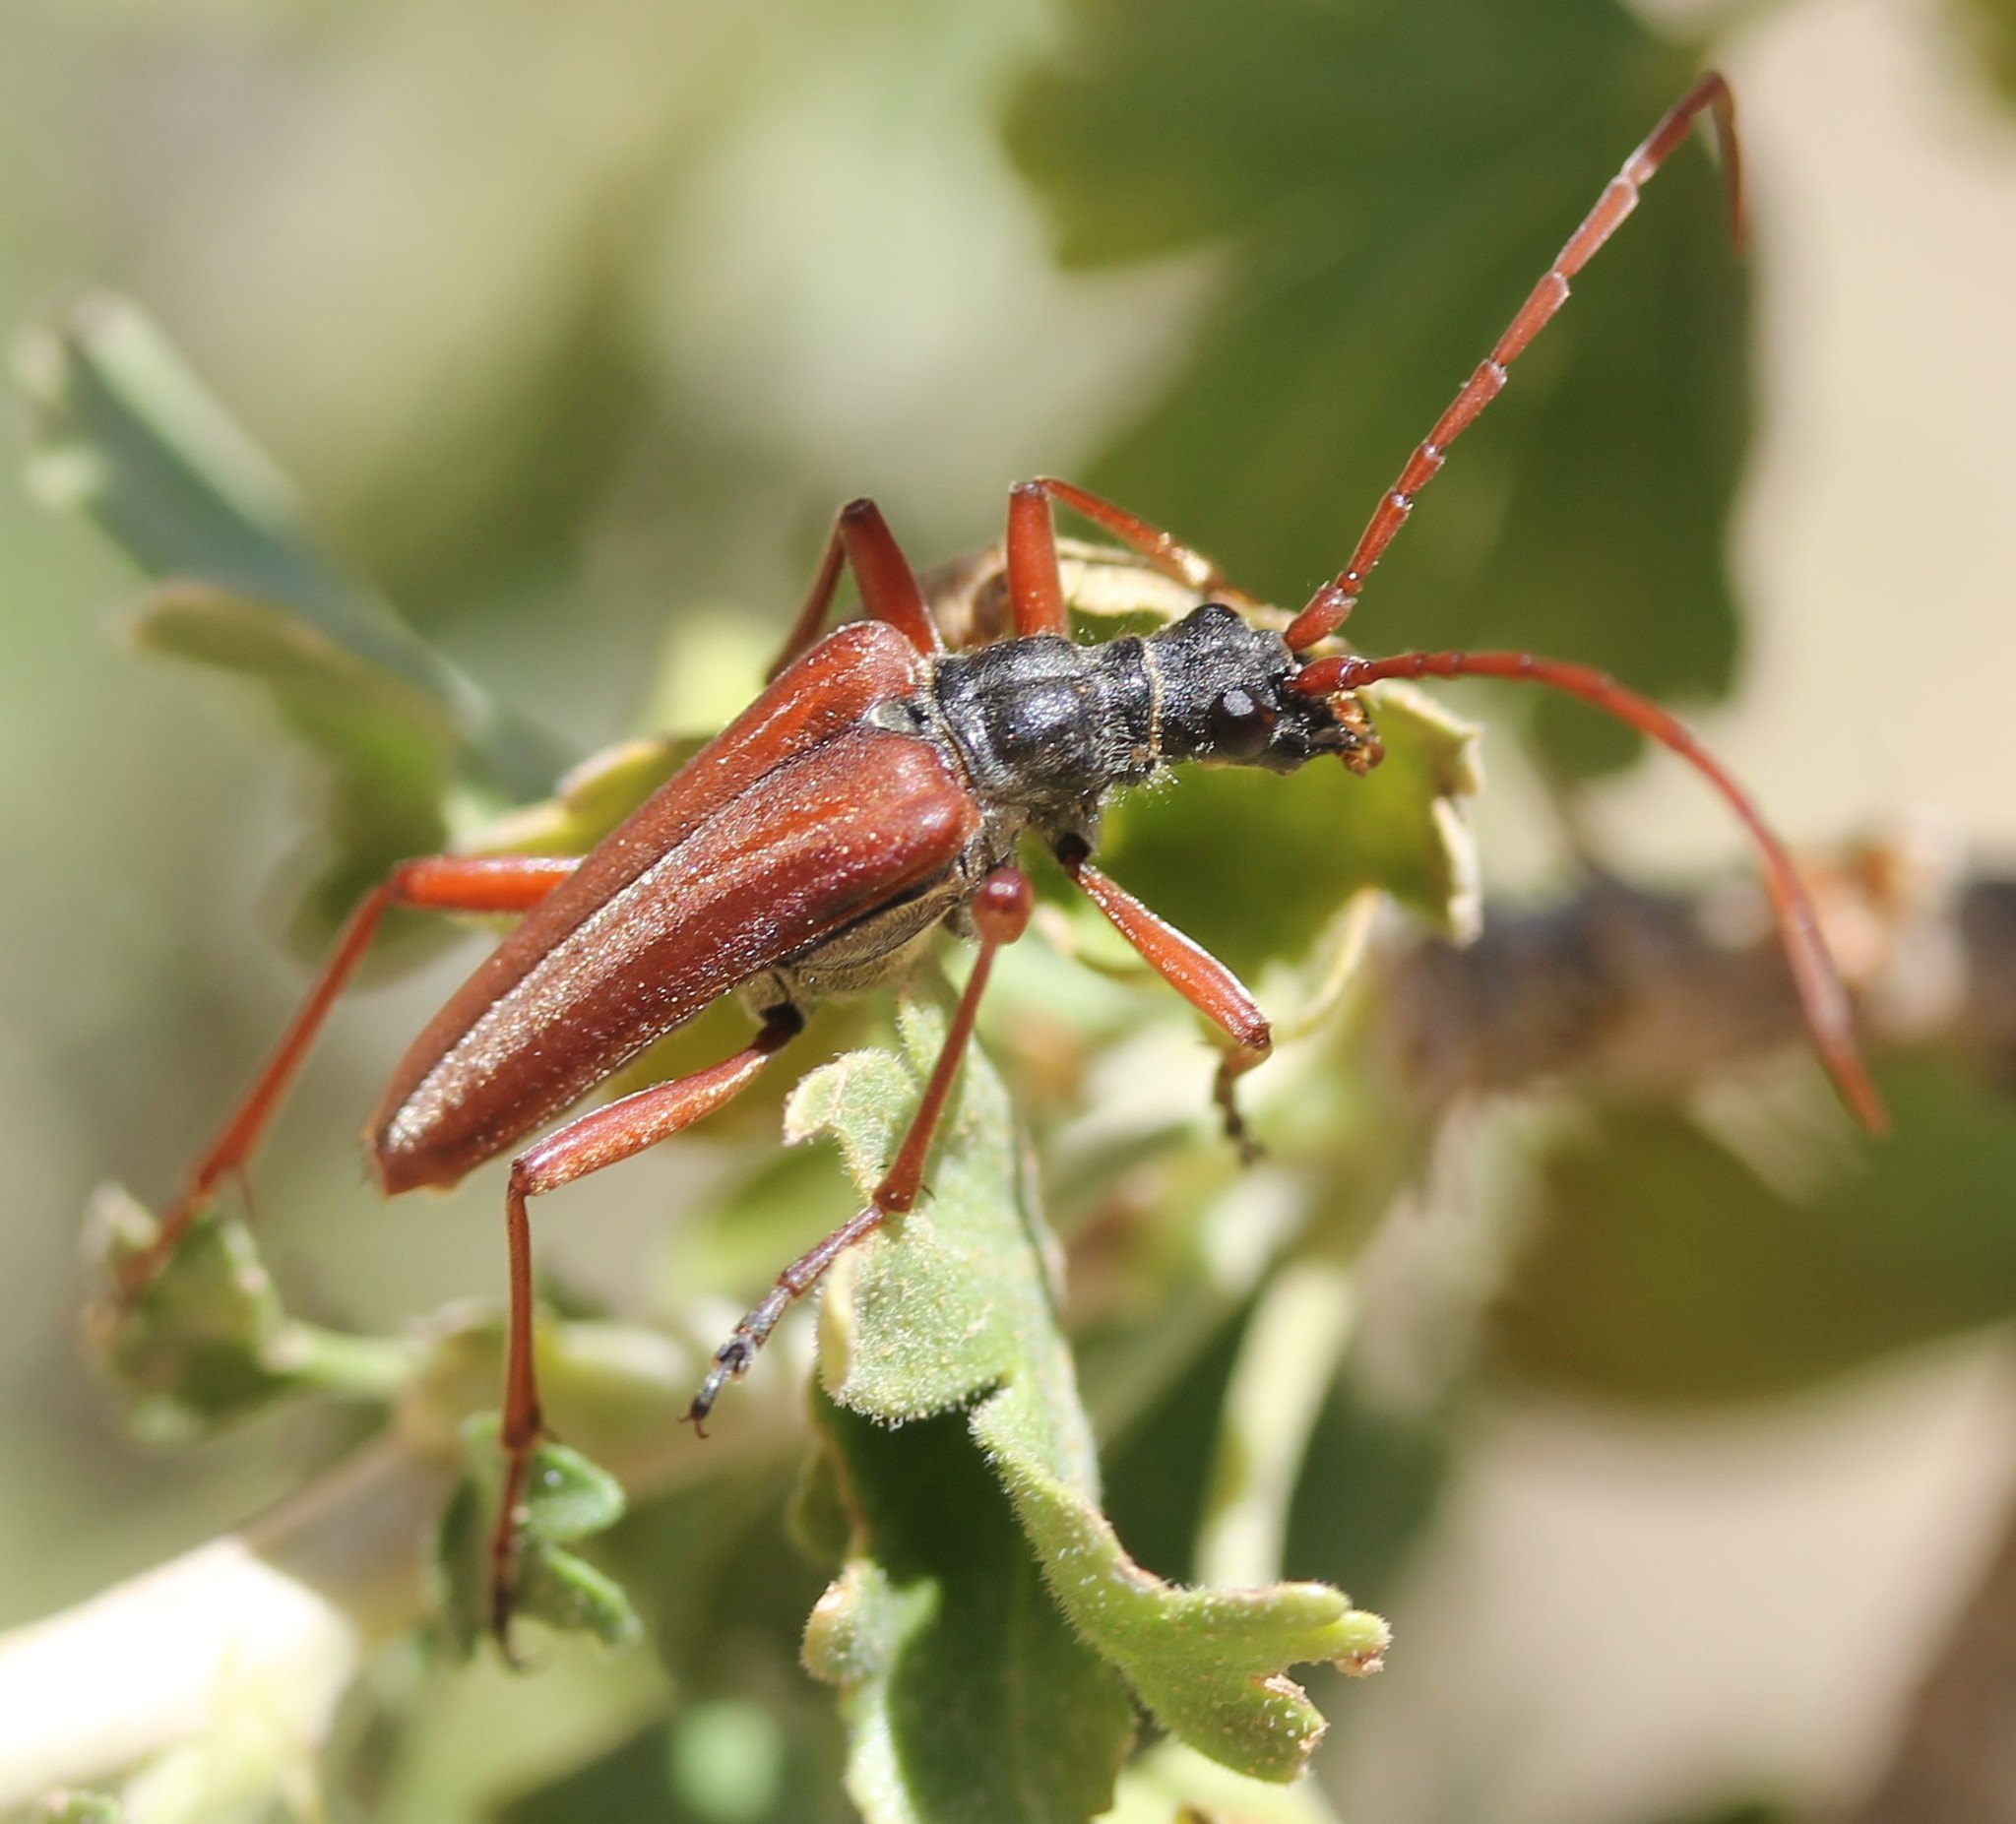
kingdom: Animalia
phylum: Arthropoda
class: Insecta
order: Coleoptera
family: Cerambycidae
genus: Stenocorus
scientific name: Stenocorus vestitus
